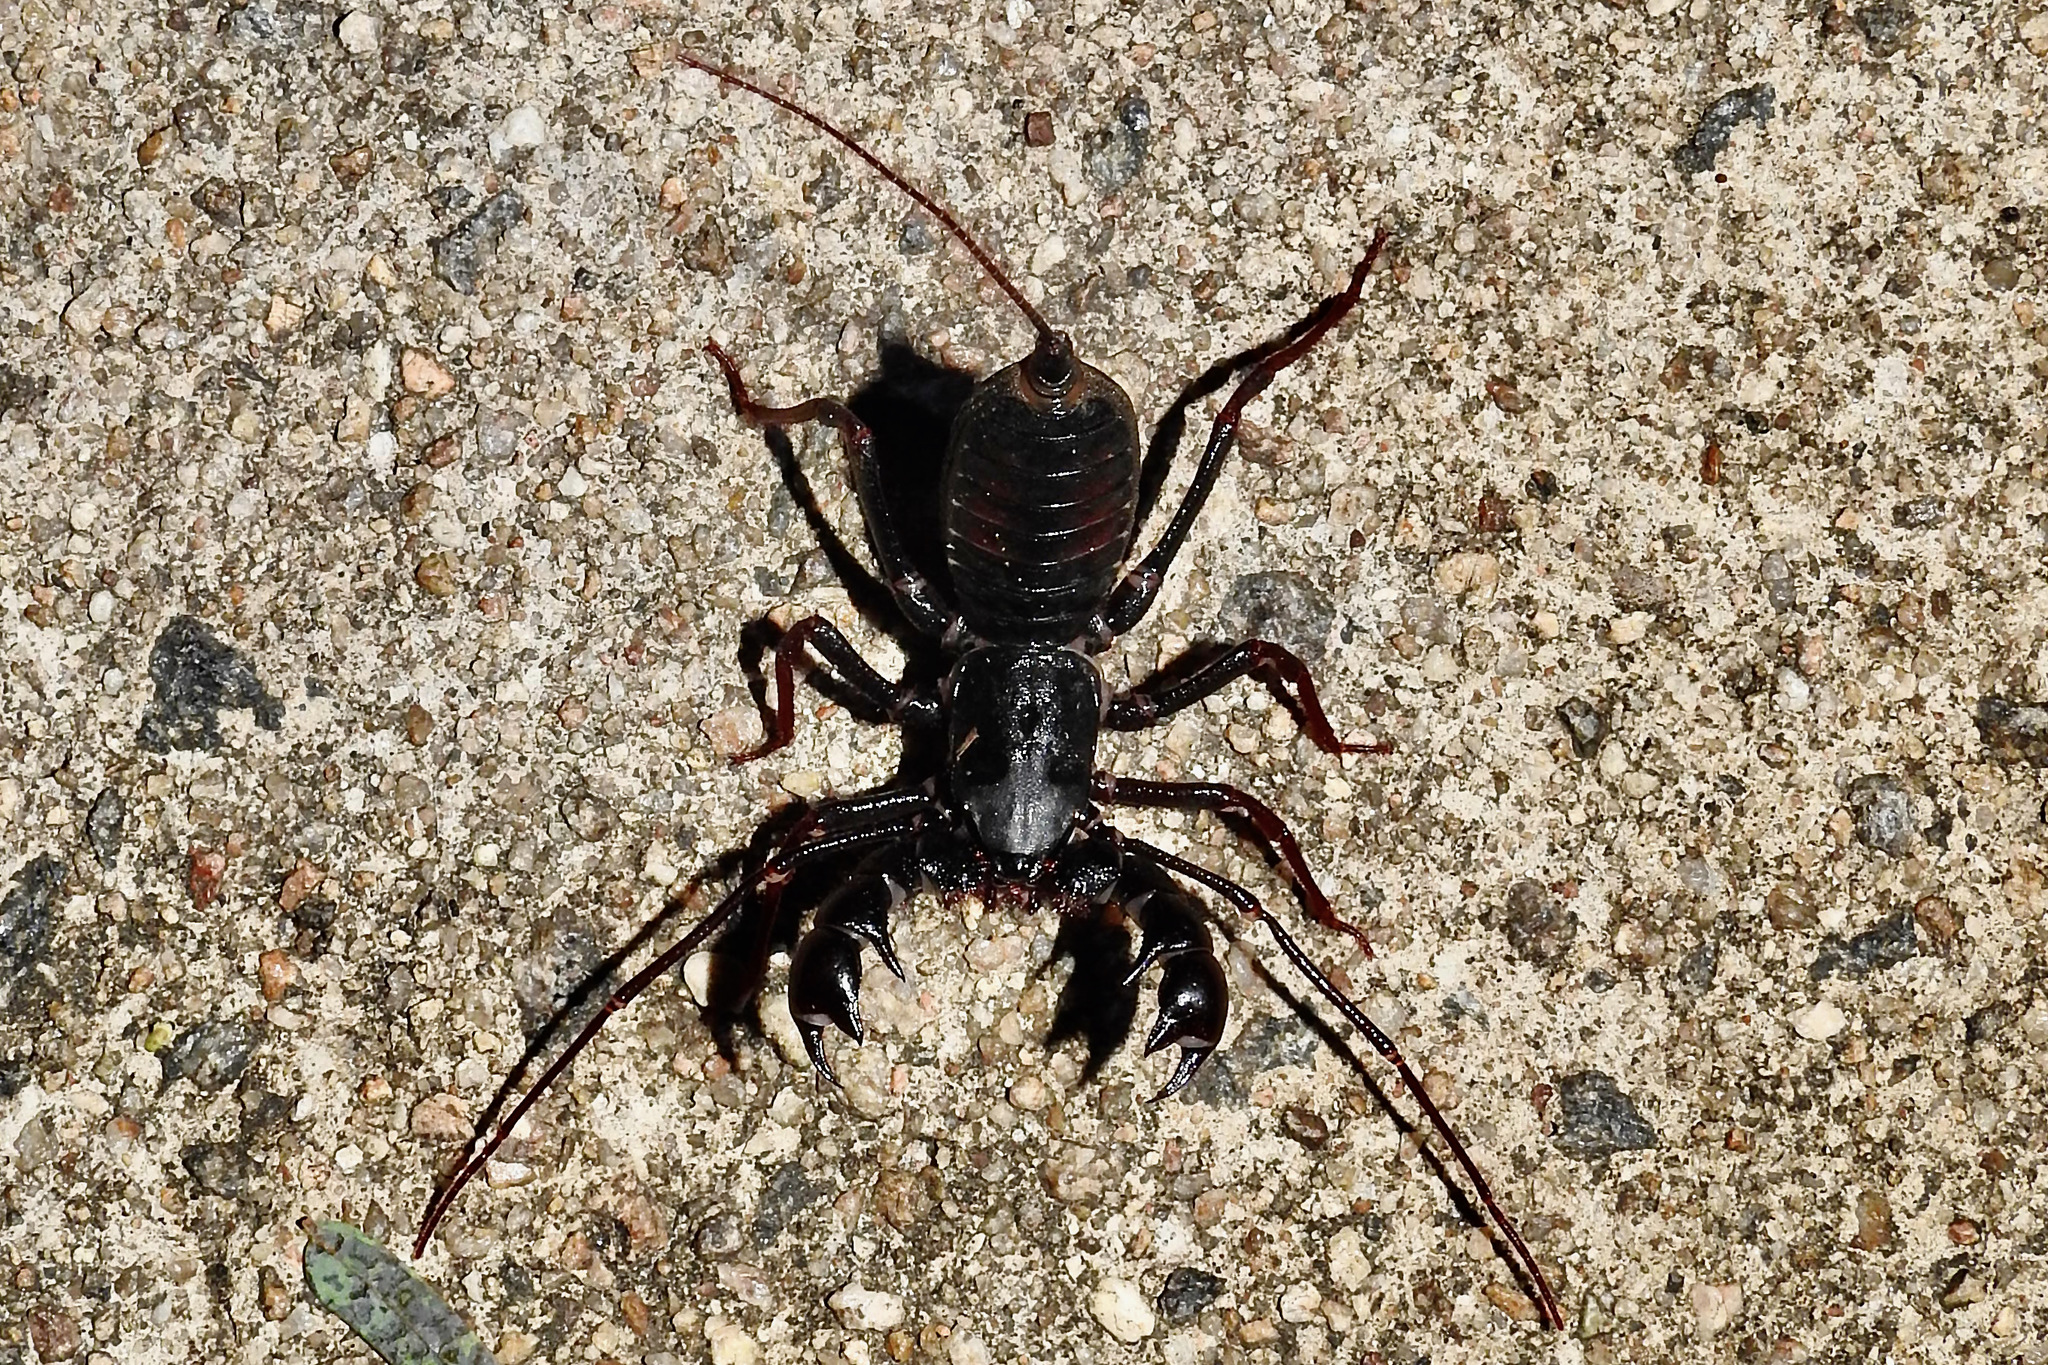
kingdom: Animalia
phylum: Arthropoda
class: Arachnida
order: Uropygi
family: Thelyphonidae
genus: Thelyphonus
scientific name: Thelyphonus sepiaris
